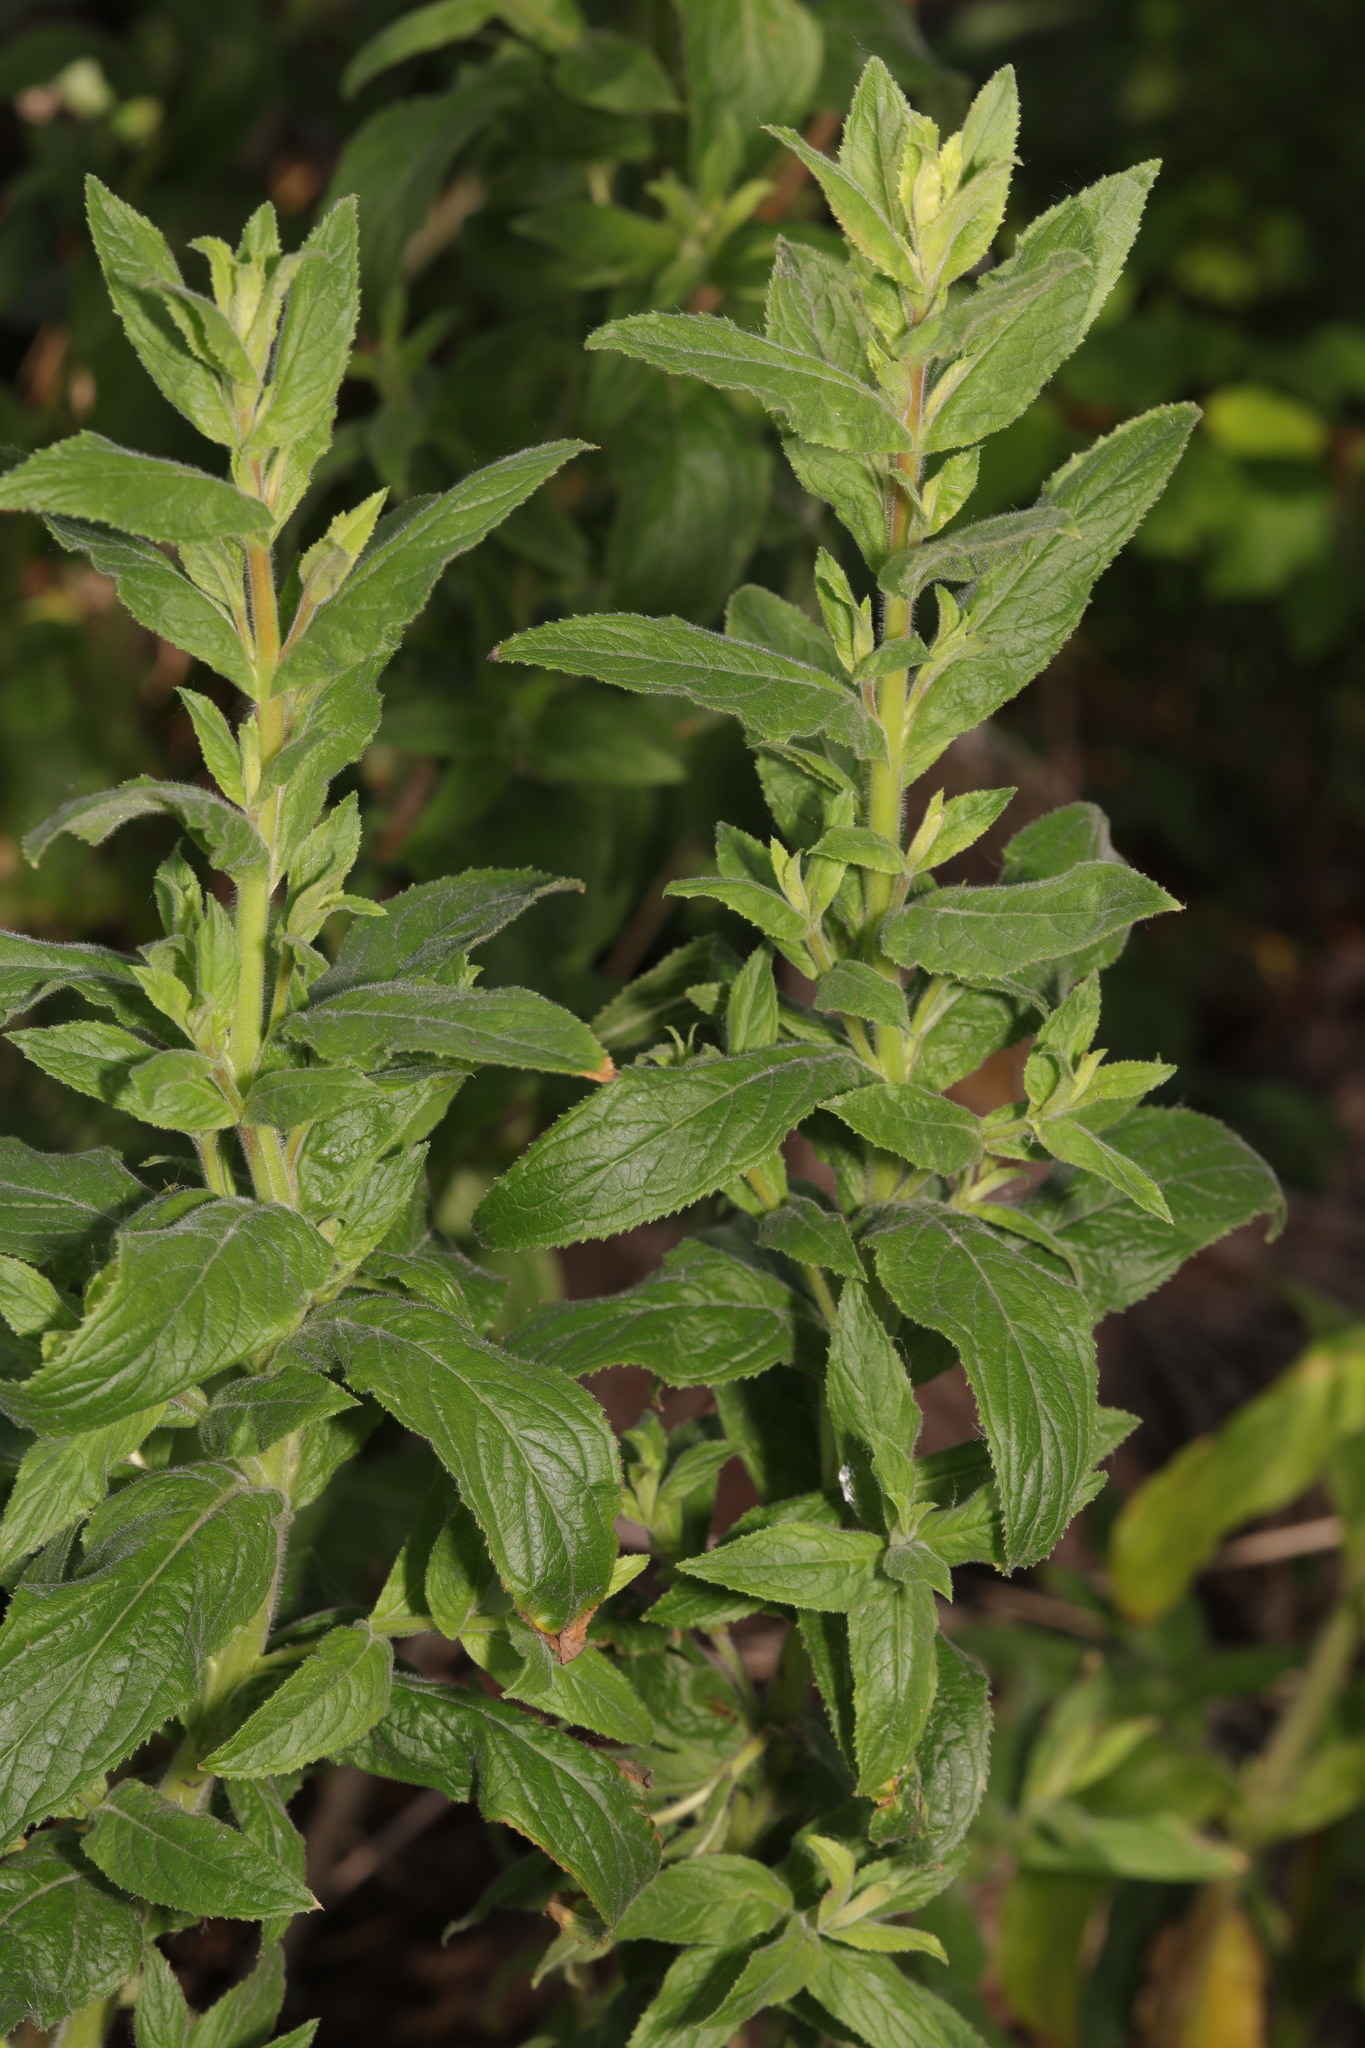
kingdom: Plantae
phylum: Tracheophyta
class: Magnoliopsida
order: Myrtales
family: Onagraceae
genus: Epilobium
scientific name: Epilobium hirsutum
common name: Great willowherb
